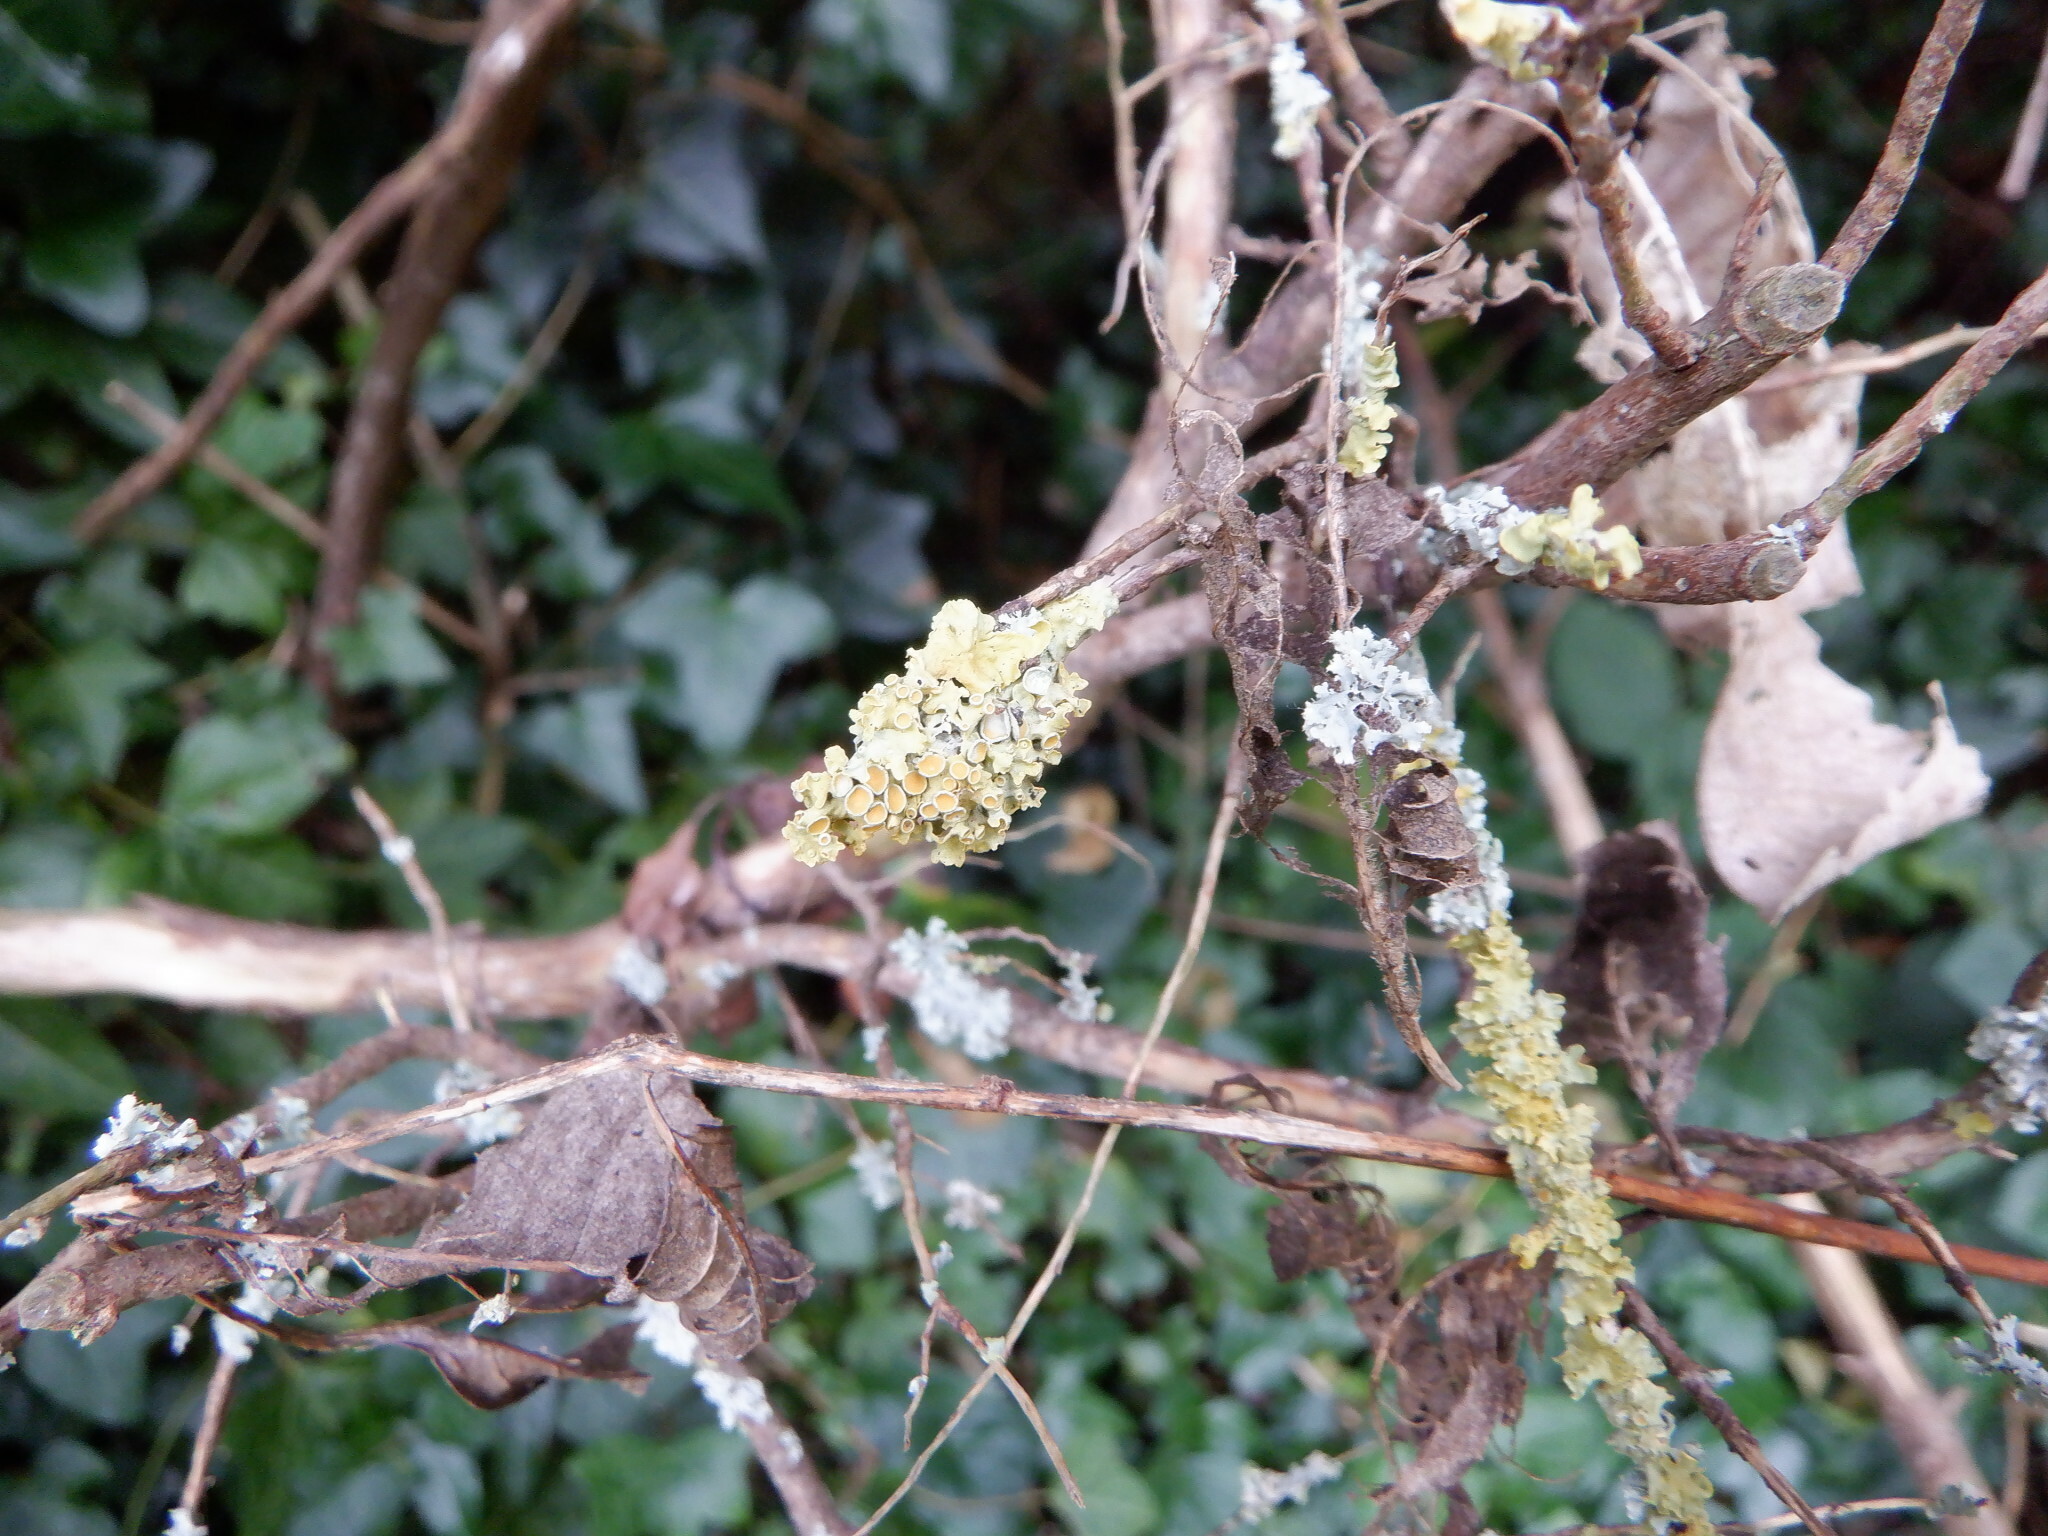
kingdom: Fungi
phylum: Ascomycota
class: Lecanoromycetes
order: Teloschistales
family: Teloschistaceae
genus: Xanthoria
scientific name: Xanthoria parietina
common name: Common orange lichen
